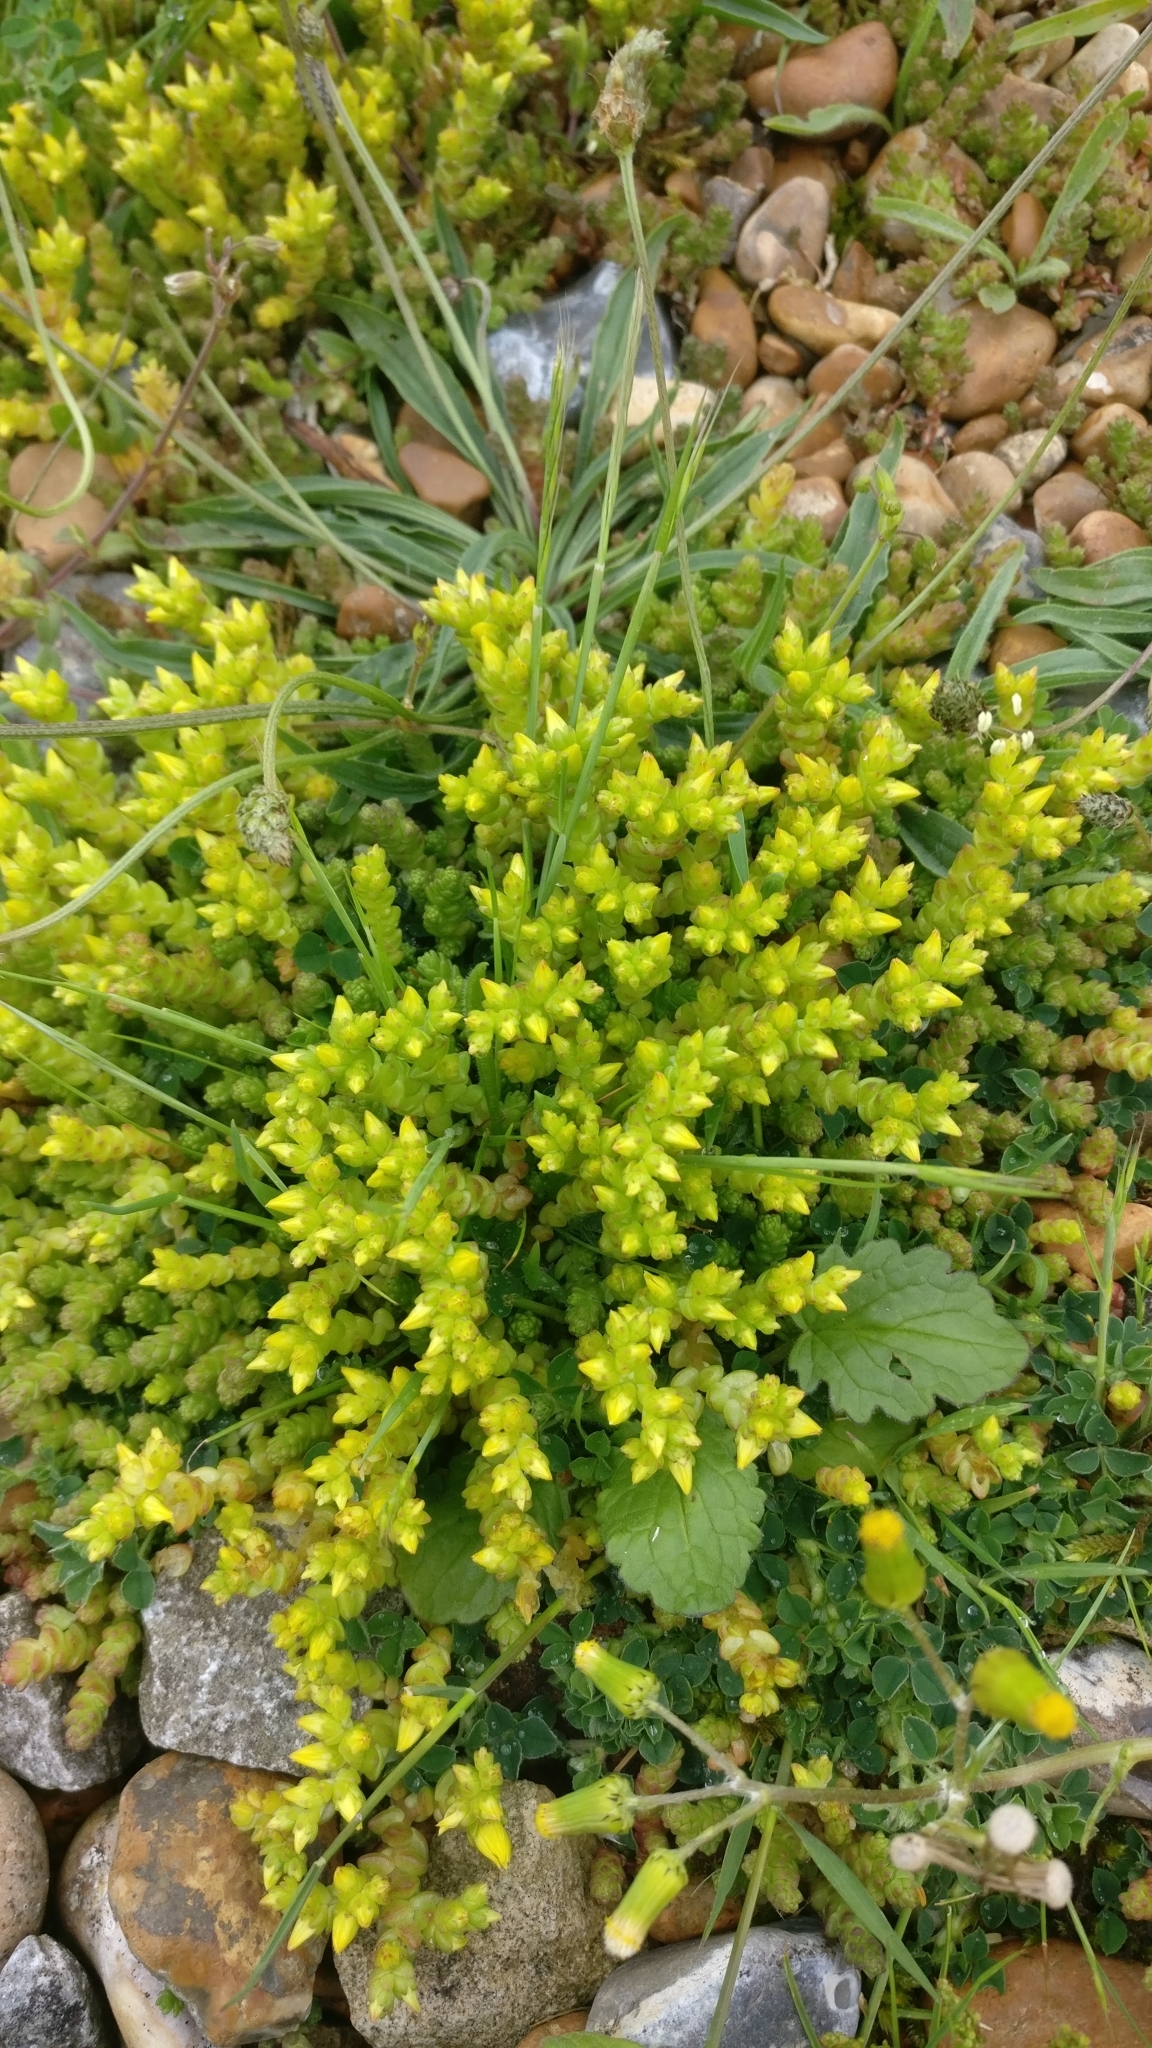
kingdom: Plantae
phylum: Tracheophyta
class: Magnoliopsida
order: Saxifragales
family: Crassulaceae
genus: Sedum
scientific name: Sedum acre
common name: Biting stonecrop
